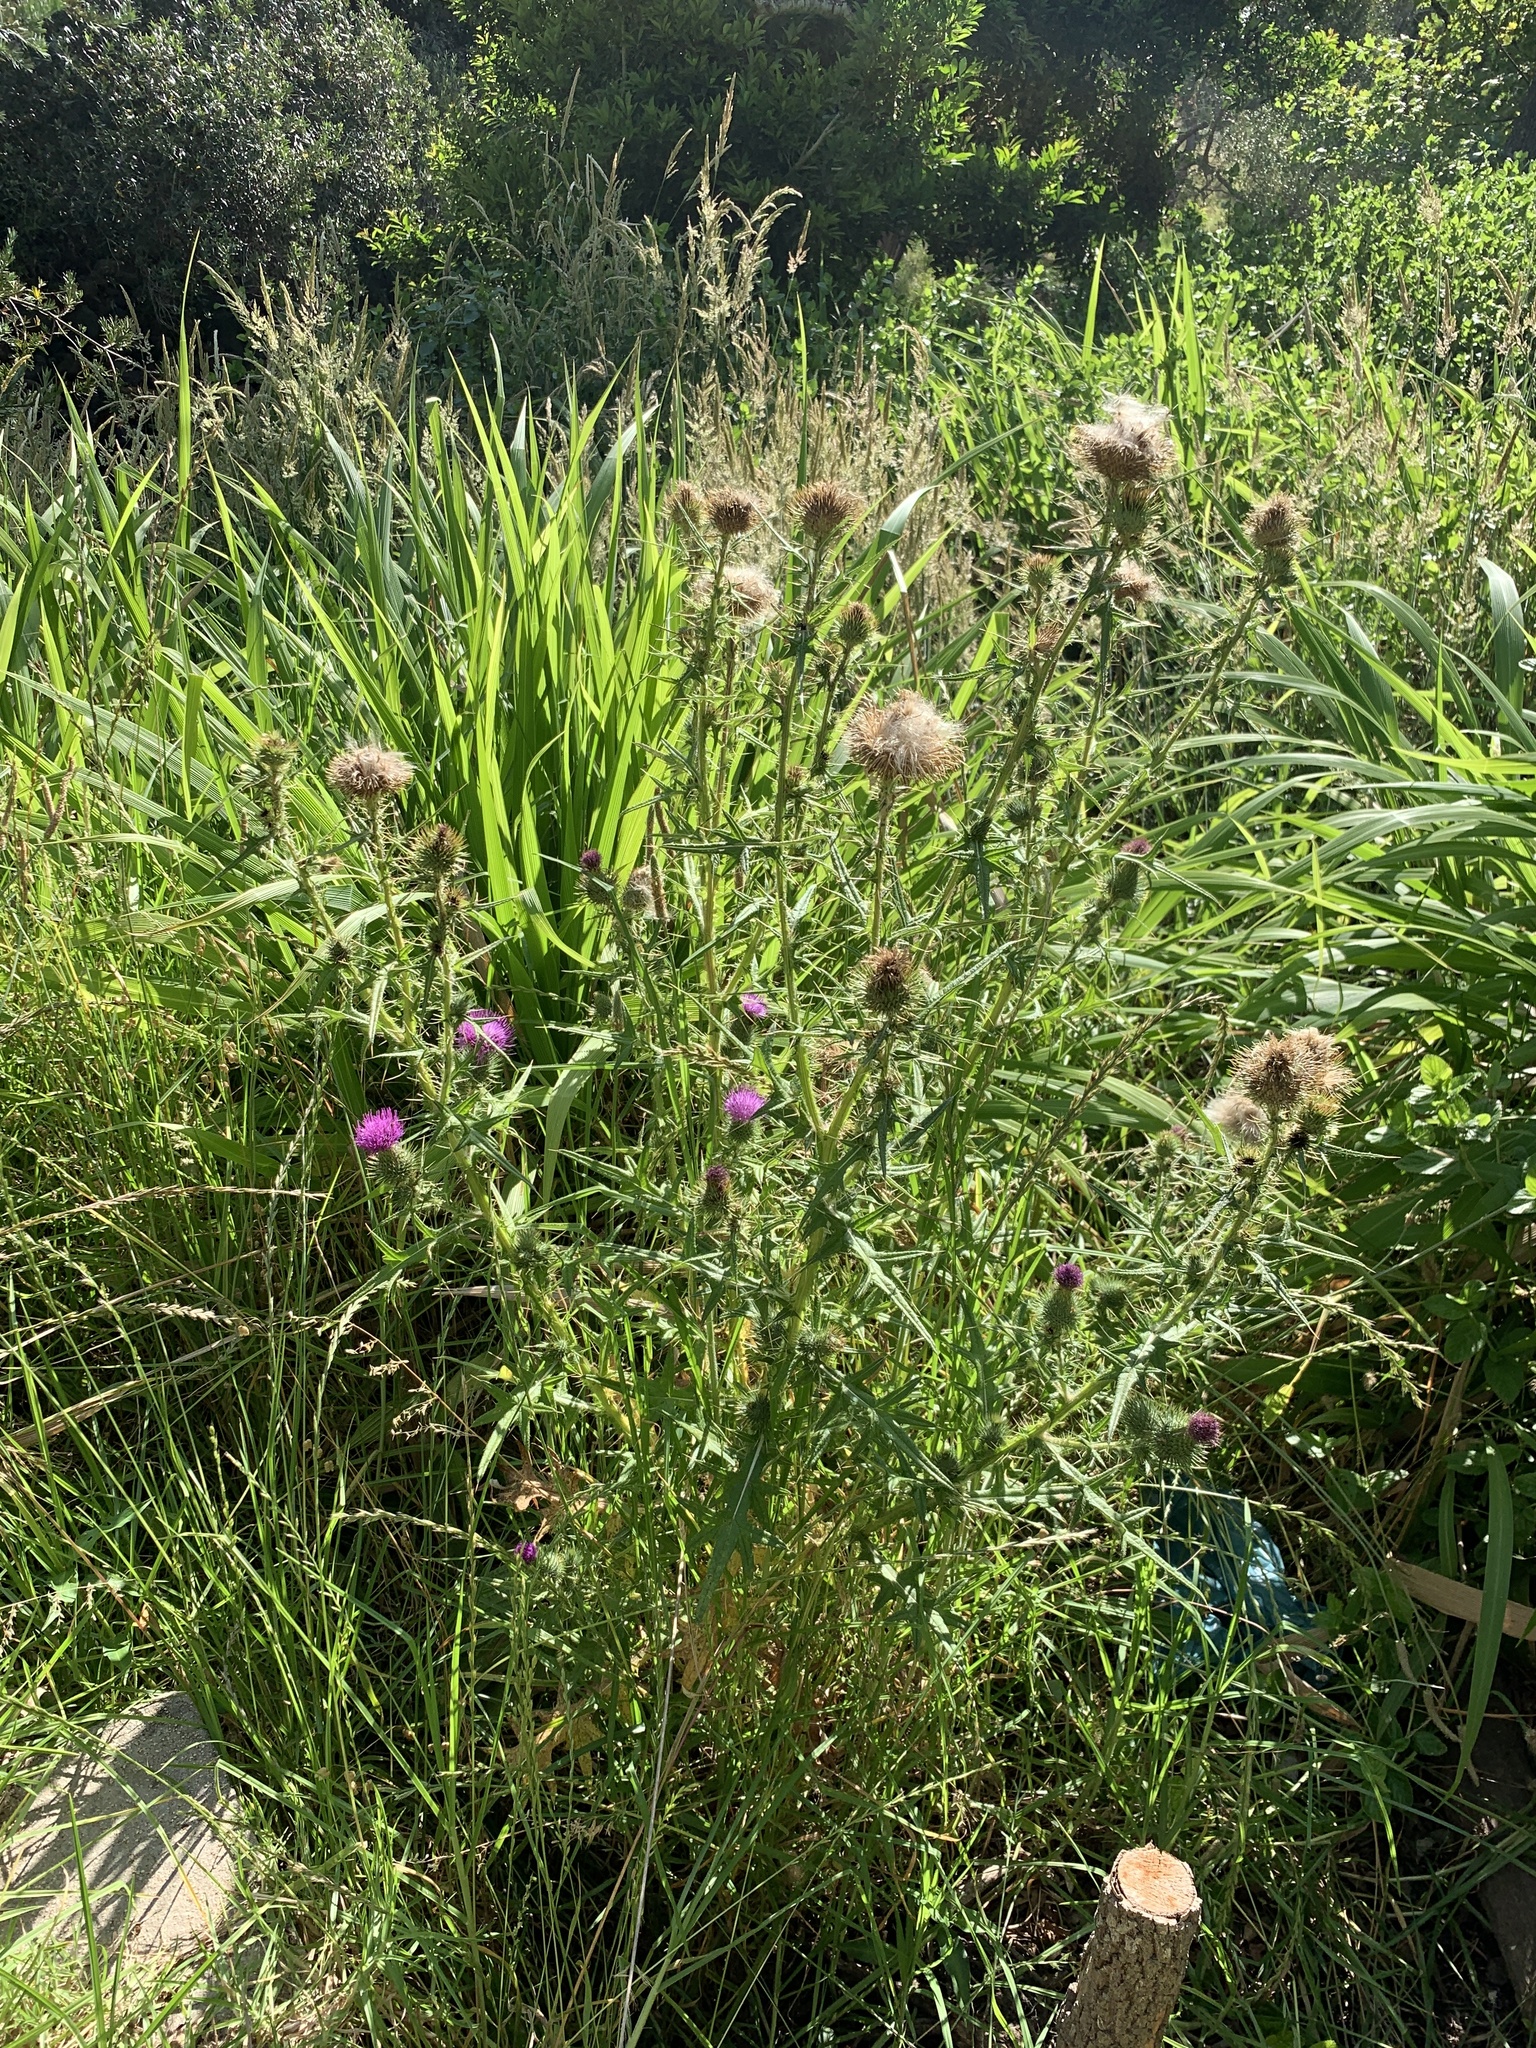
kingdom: Plantae
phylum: Tracheophyta
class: Magnoliopsida
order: Asterales
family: Asteraceae
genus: Cirsium
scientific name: Cirsium vulgare
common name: Bull thistle
